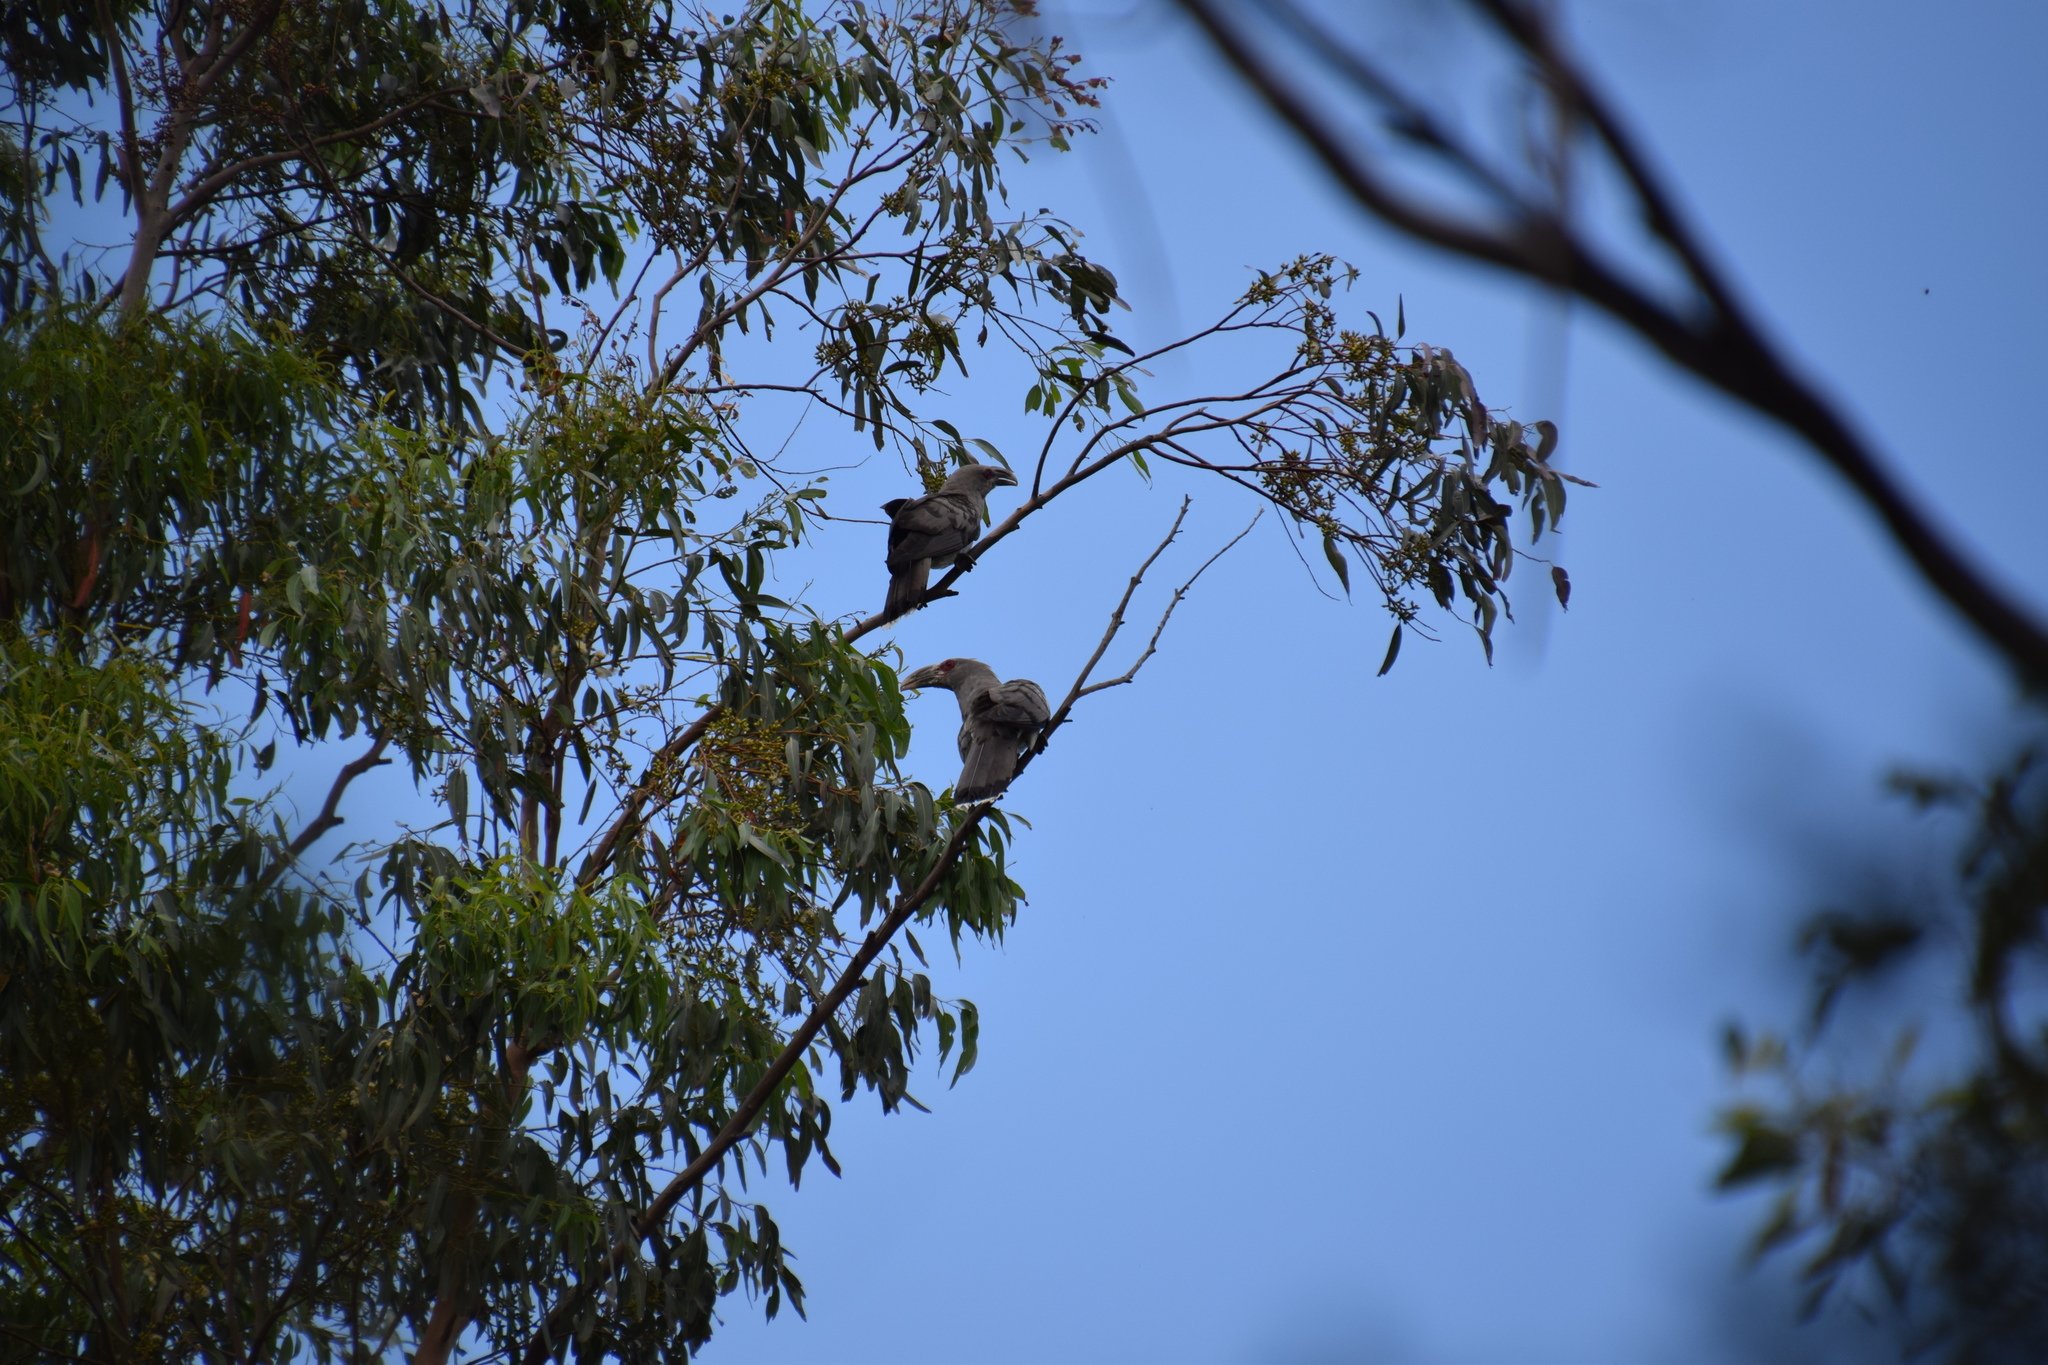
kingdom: Animalia
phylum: Chordata
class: Aves
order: Cuculiformes
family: Cuculidae
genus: Scythrops
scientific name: Scythrops novaehollandiae
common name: Channel-billed cuckoo
